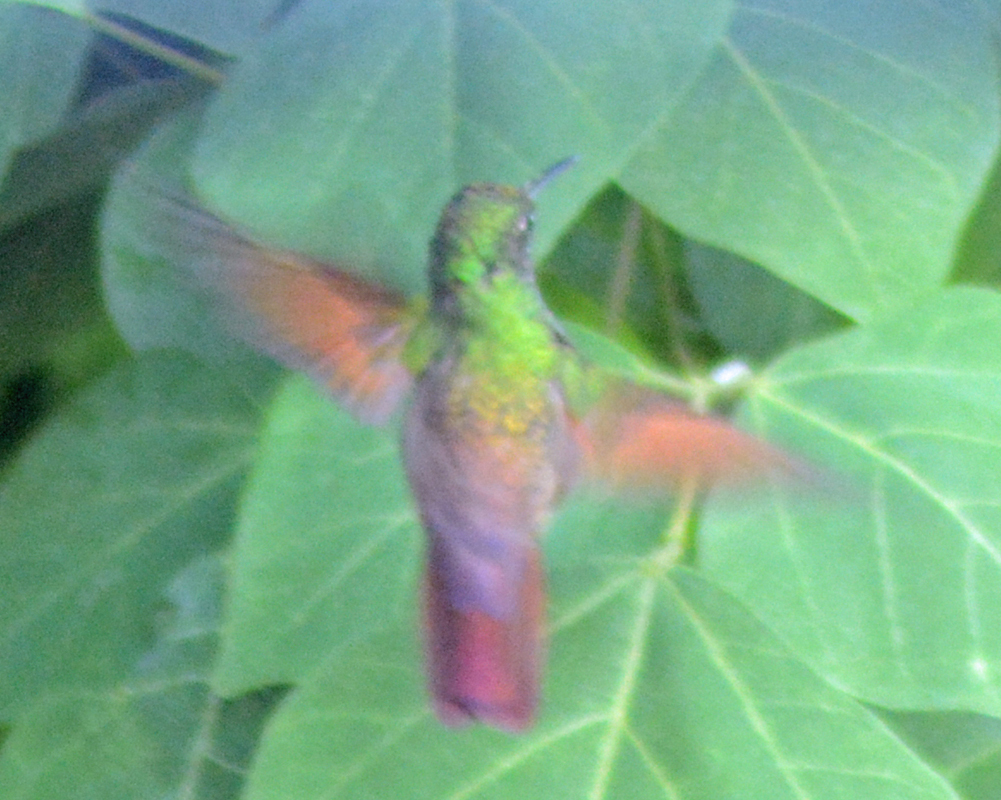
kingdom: Animalia
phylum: Chordata
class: Aves
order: Apodiformes
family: Trochilidae
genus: Saucerottia
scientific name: Saucerottia beryllina
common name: Berylline hummingbird
